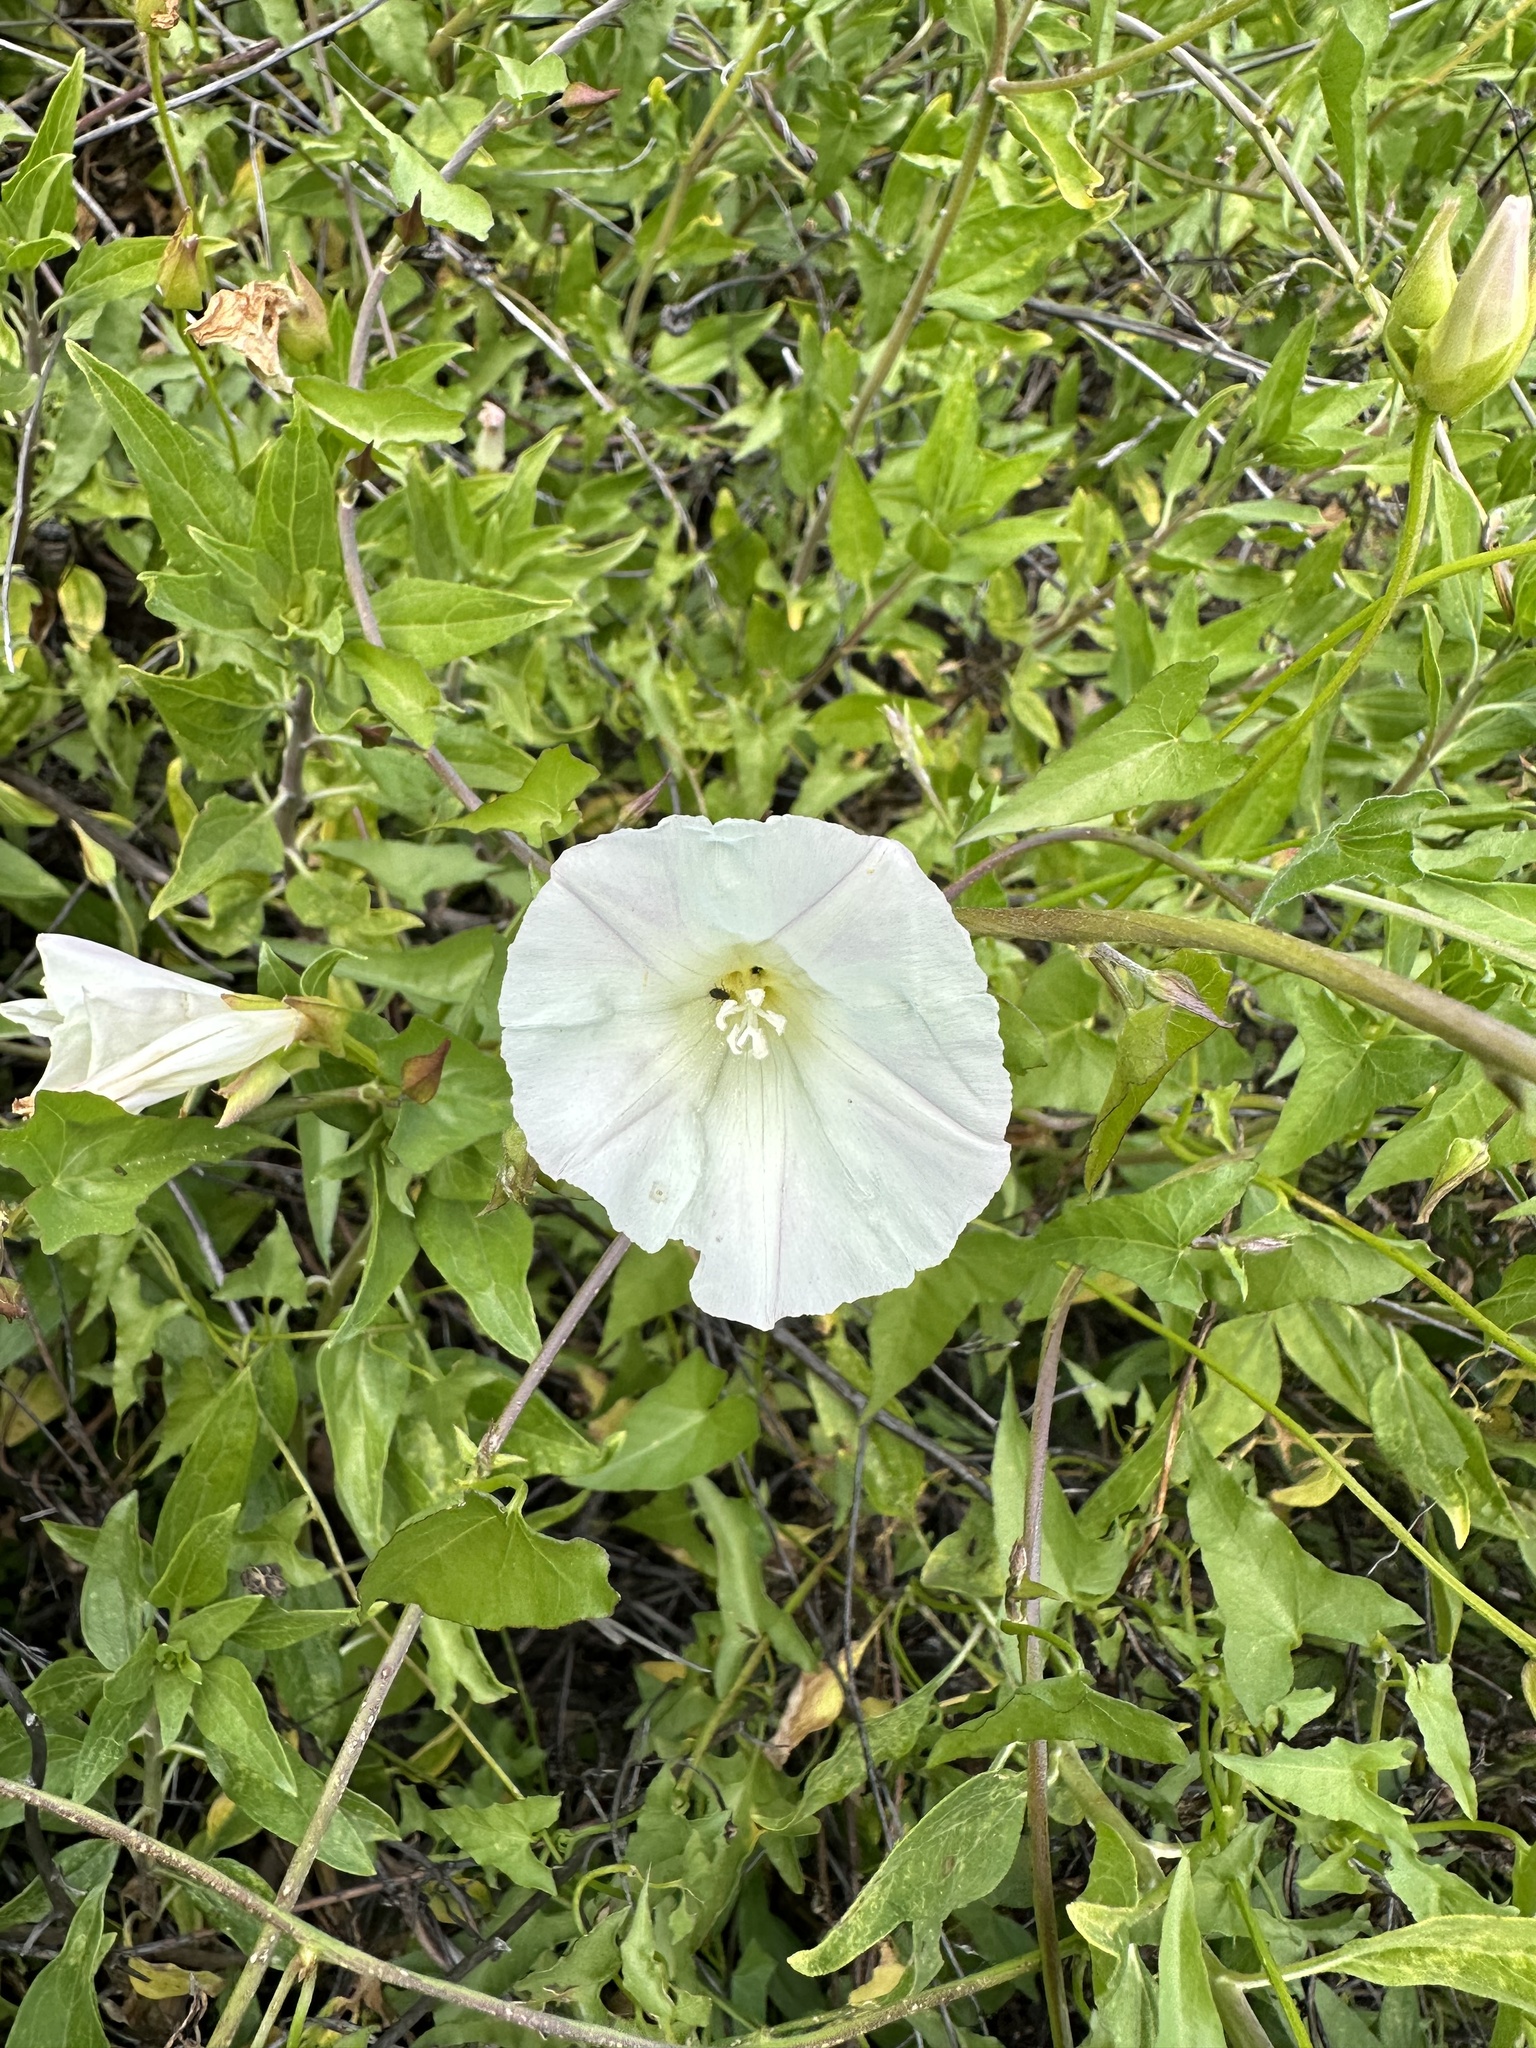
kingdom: Plantae
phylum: Tracheophyta
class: Magnoliopsida
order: Solanales
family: Convolvulaceae
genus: Calystegia
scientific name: Calystegia macrostegia
